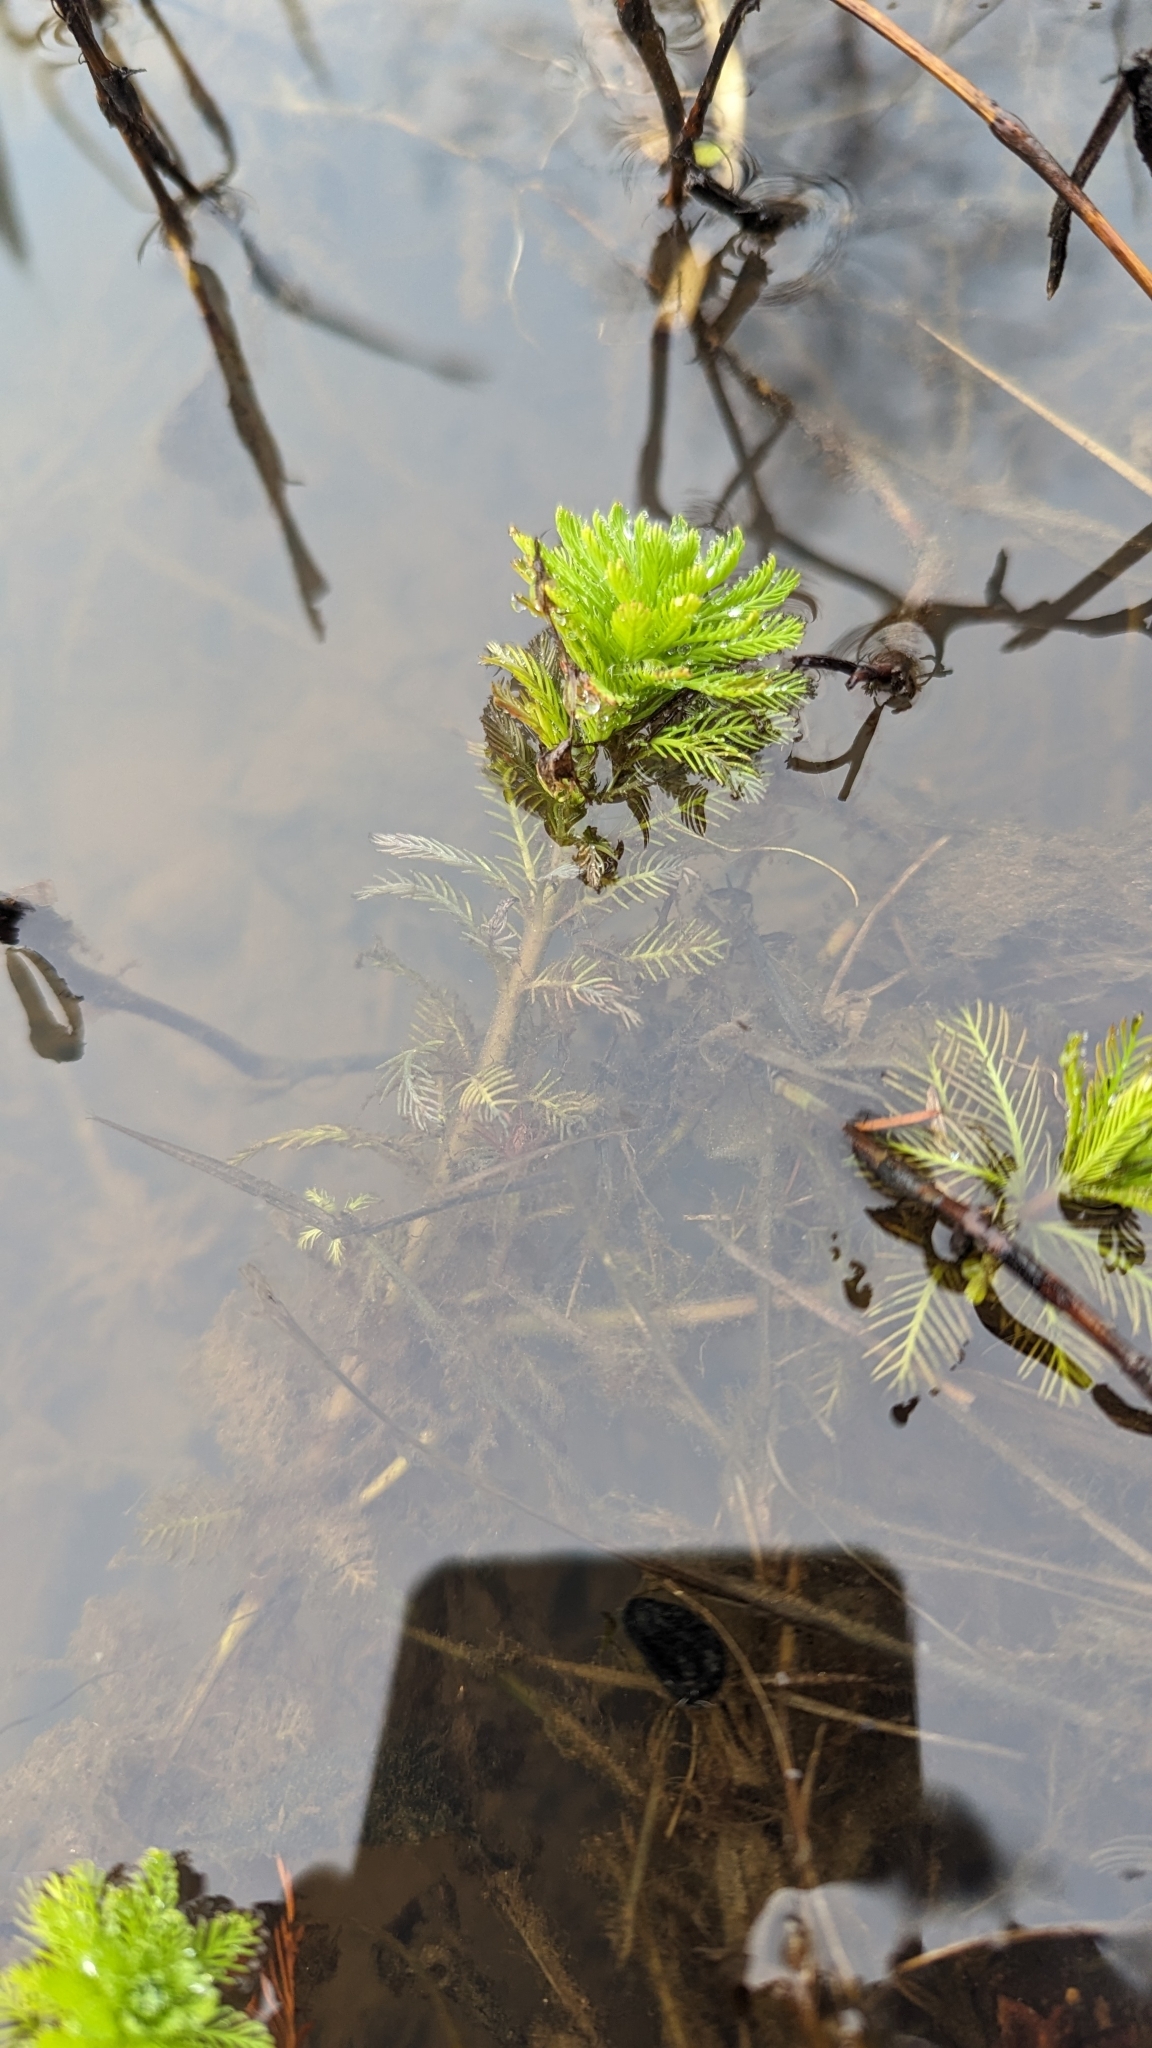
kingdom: Plantae
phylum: Tracheophyta
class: Magnoliopsida
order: Saxifragales
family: Haloragaceae
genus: Myriophyllum
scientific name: Myriophyllum aquaticum
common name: Parrot's feather
